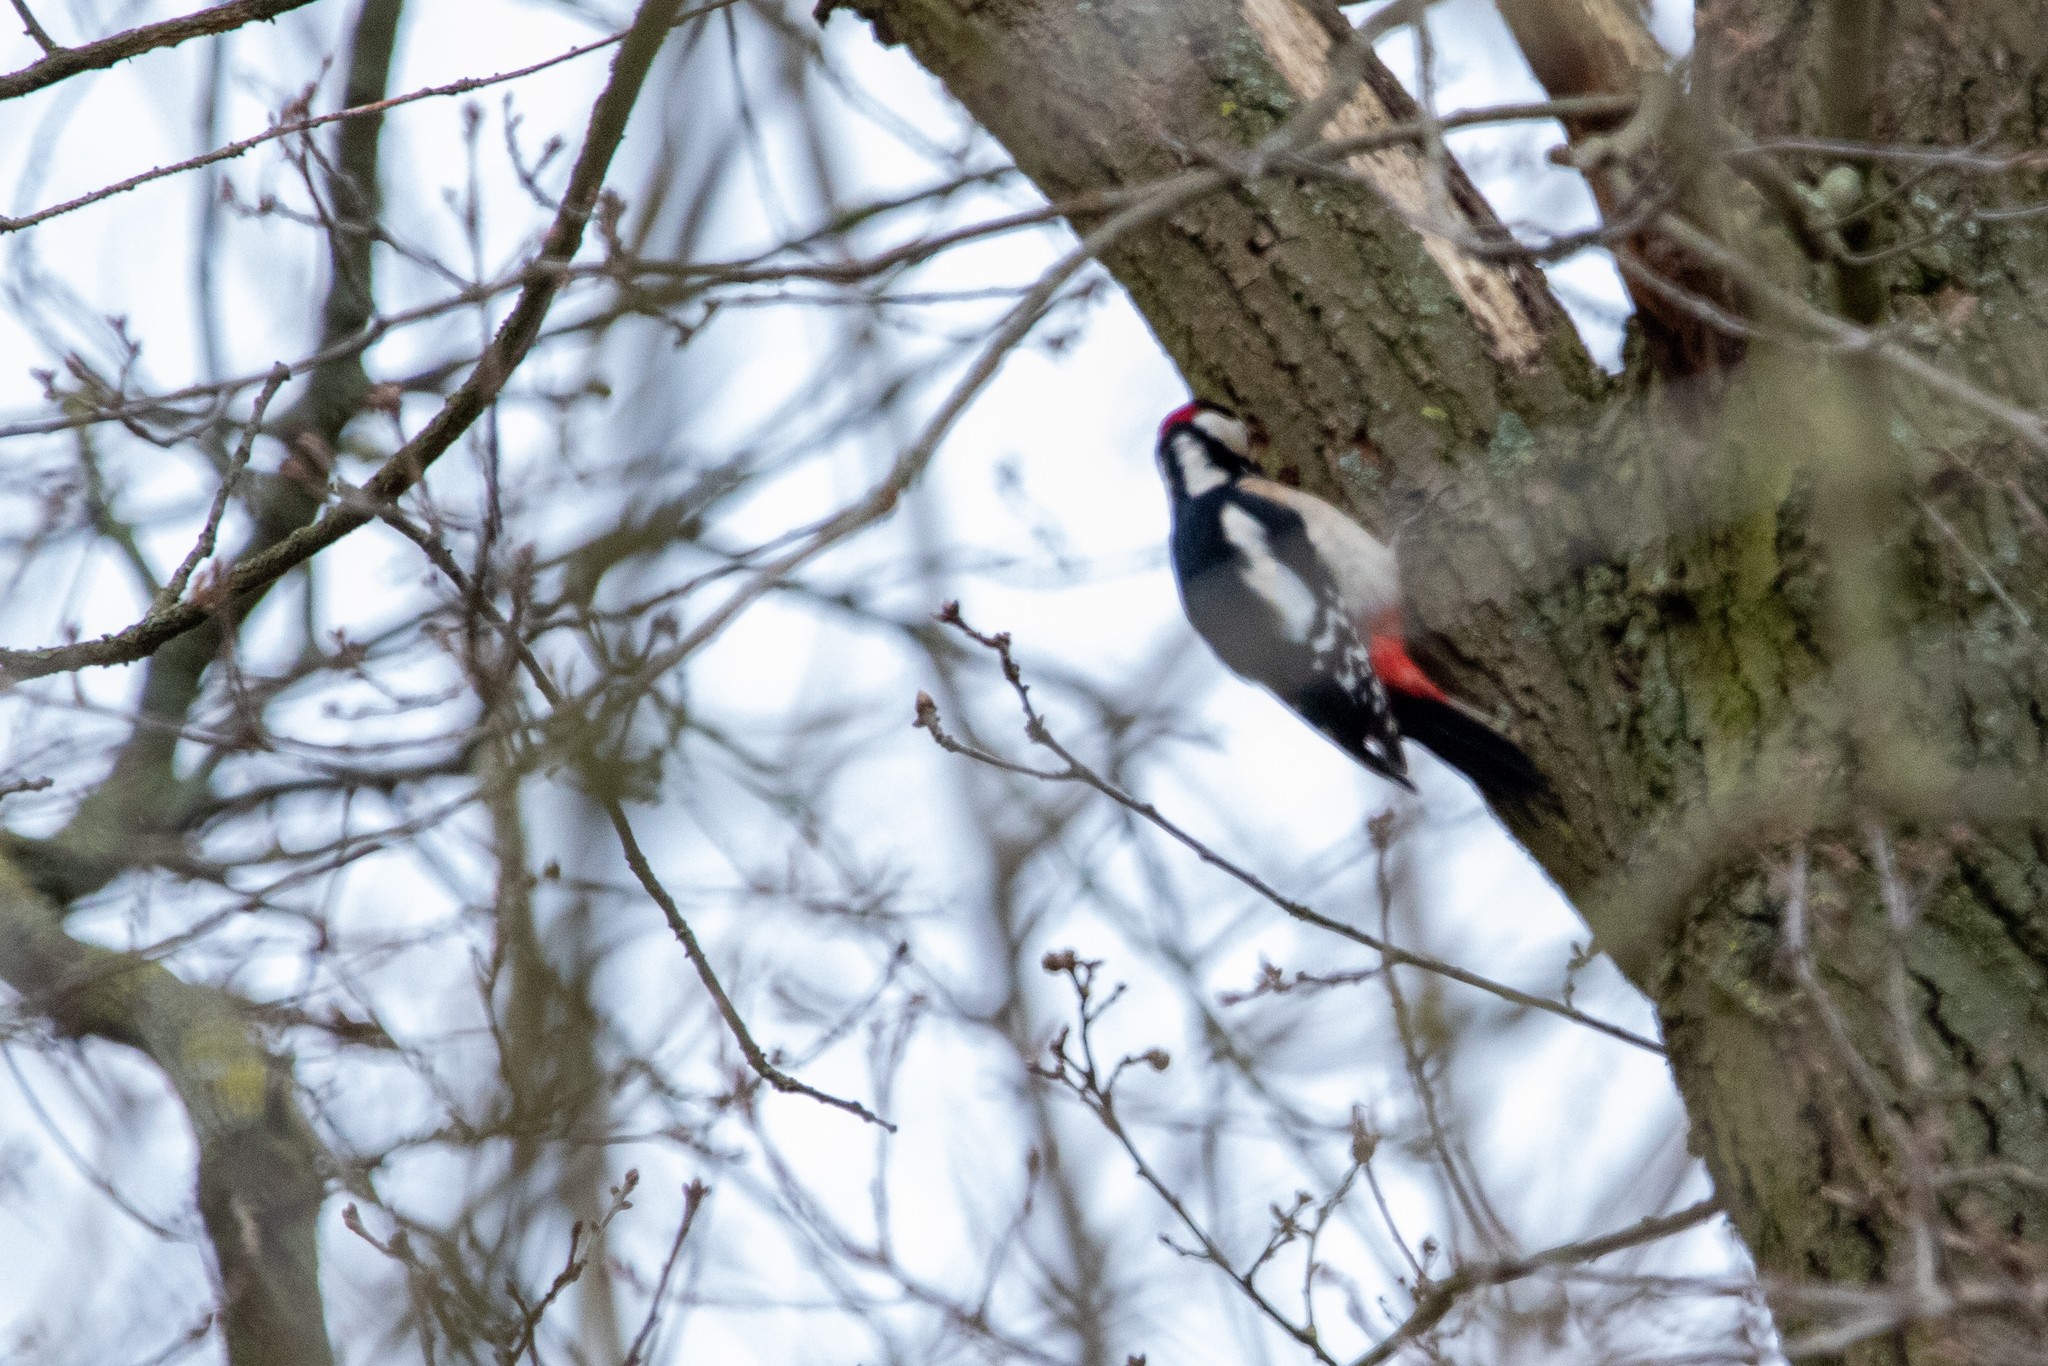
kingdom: Animalia
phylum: Chordata
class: Aves
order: Piciformes
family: Picidae
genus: Dendrocopos
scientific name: Dendrocopos major
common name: Great spotted woodpecker
